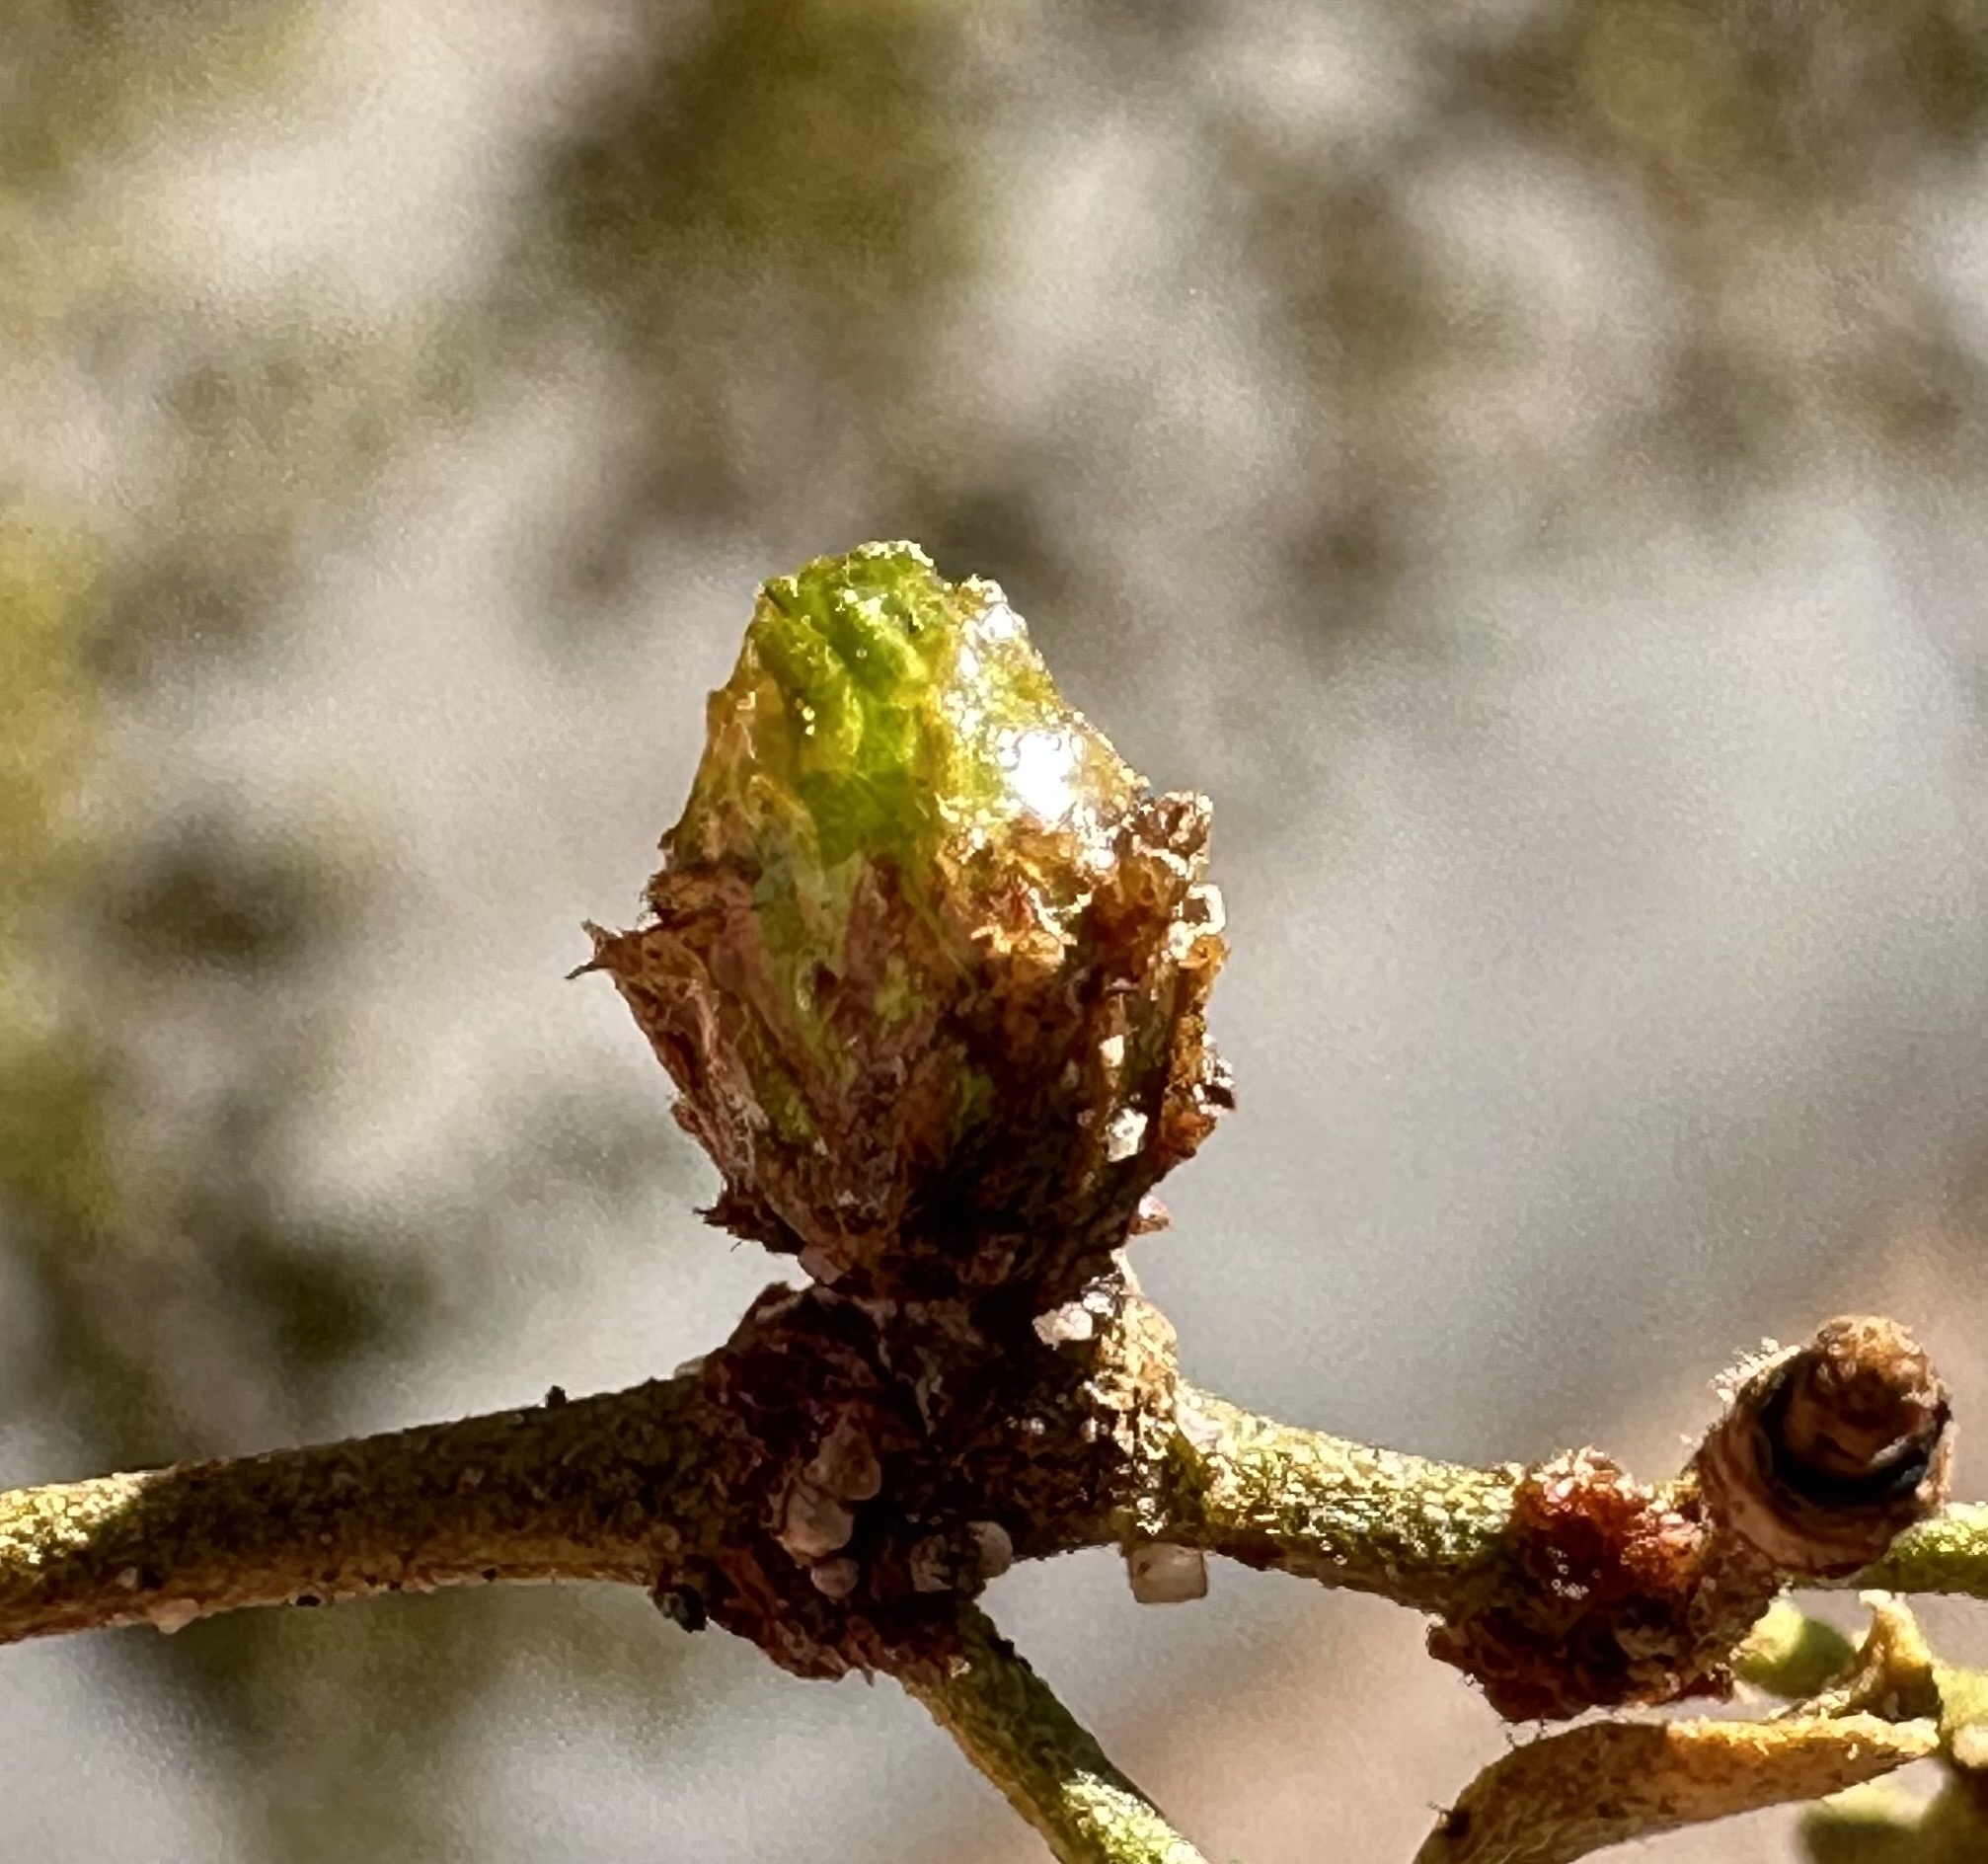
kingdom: Animalia
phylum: Arthropoda
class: Insecta
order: Diptera
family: Cecidomyiidae
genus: Asphondylia
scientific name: Asphondylia resinosa
